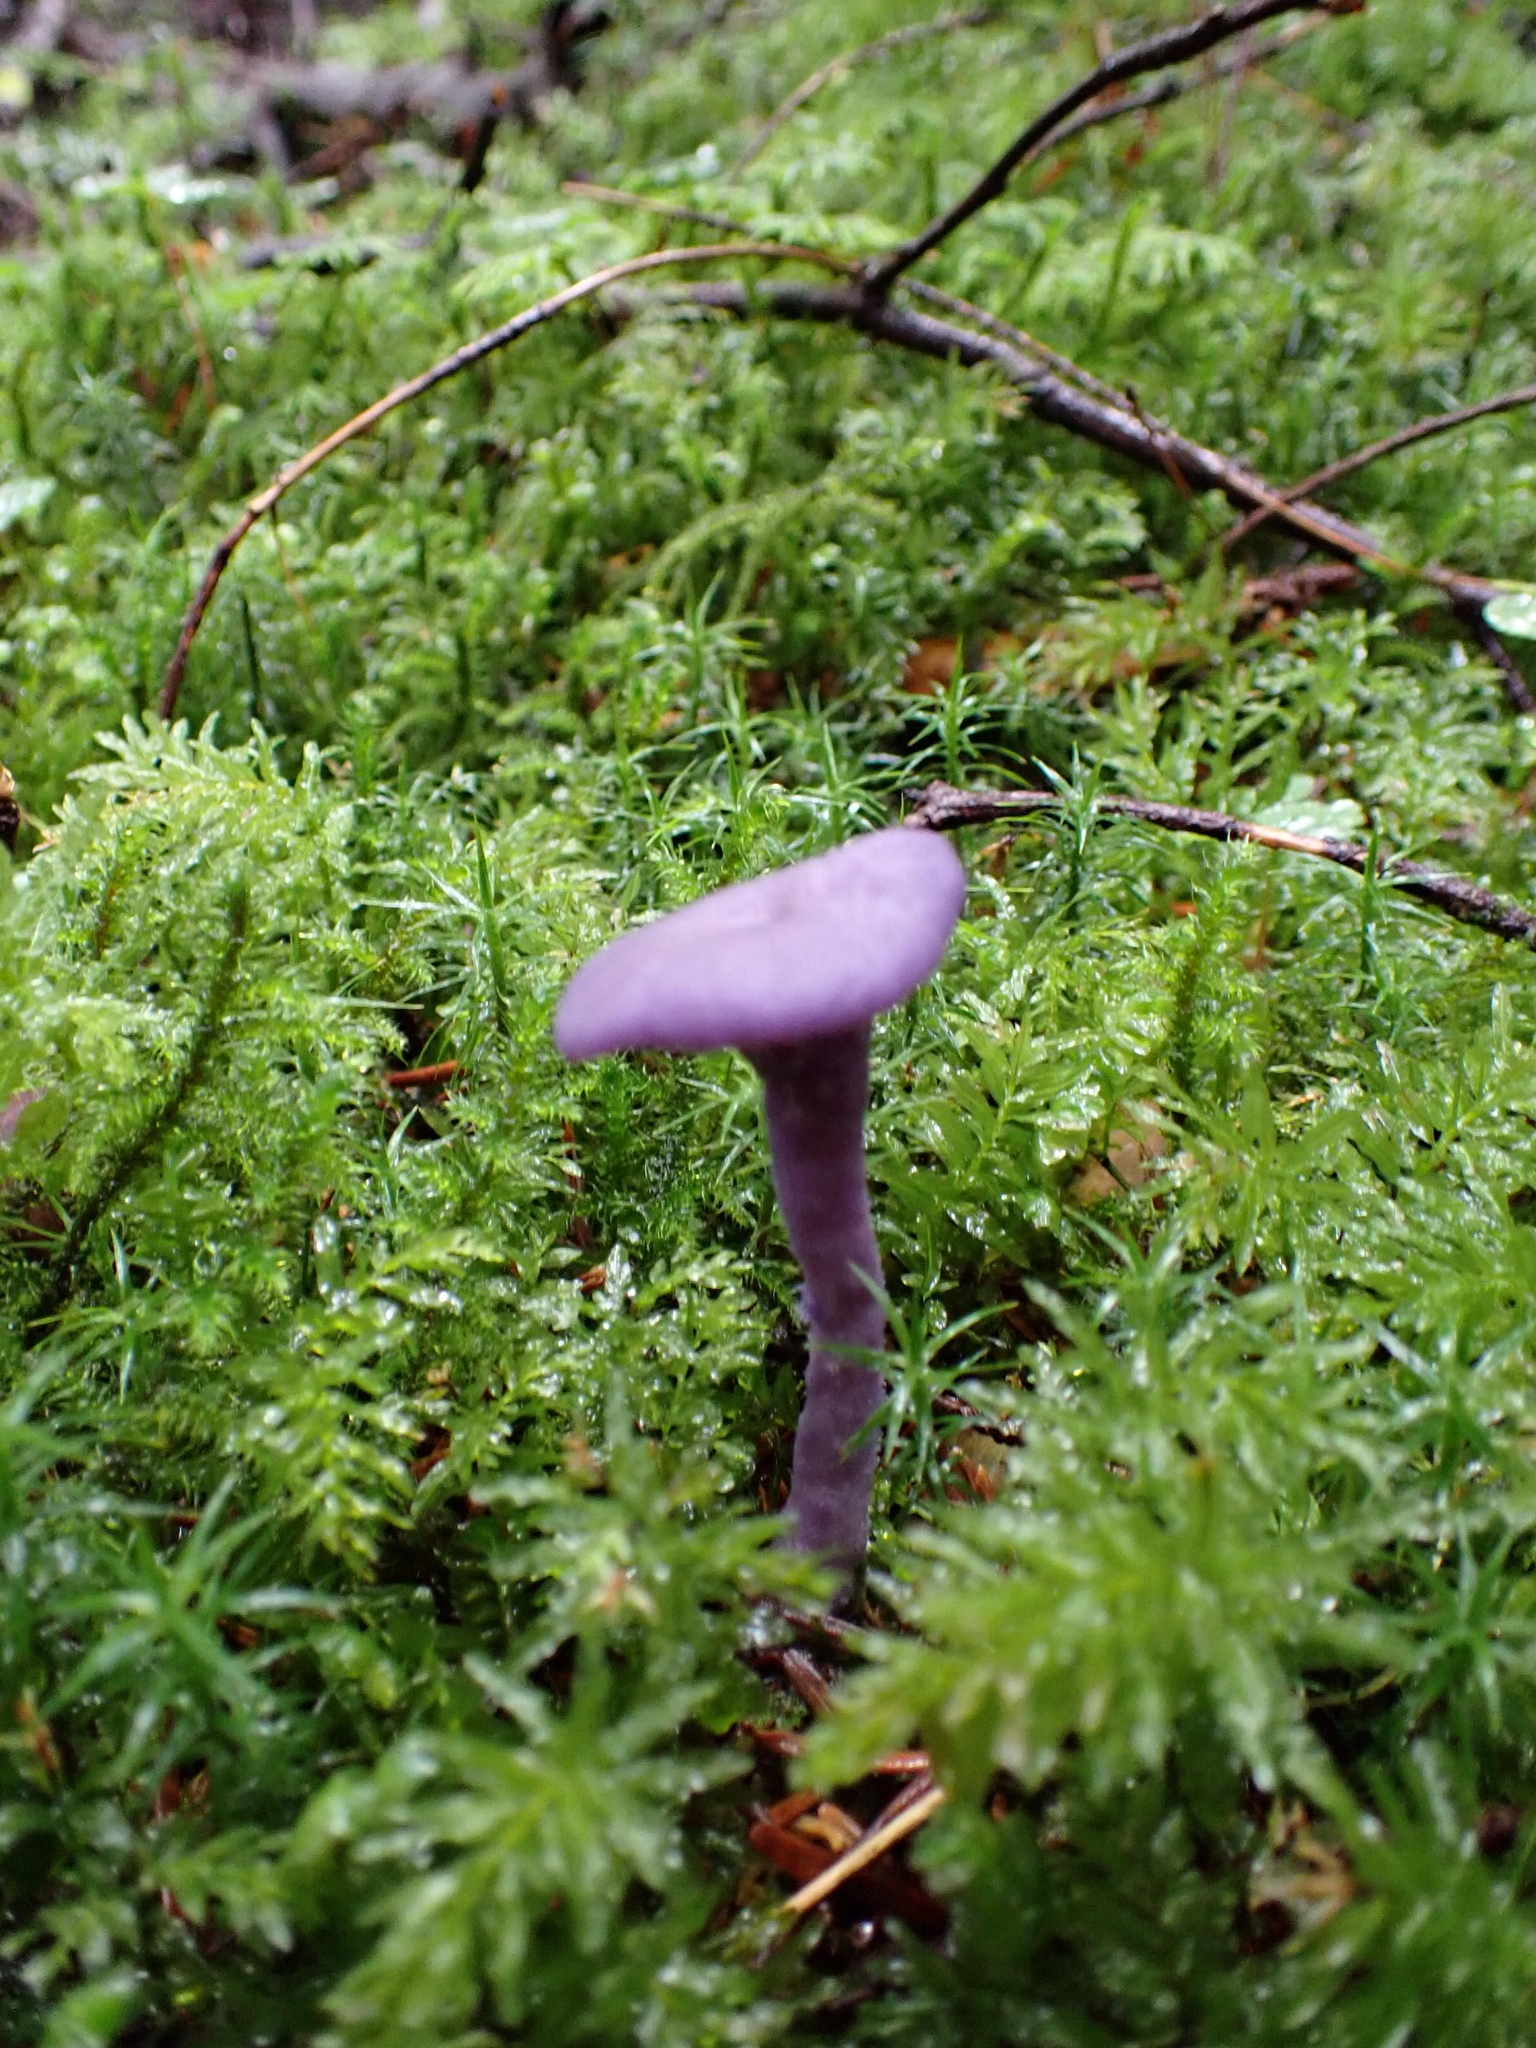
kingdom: Fungi
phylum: Basidiomycota
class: Agaricomycetes
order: Agaricales
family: Hydnangiaceae
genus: Laccaria
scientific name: Laccaria amethystina
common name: Amethyst deceiver
